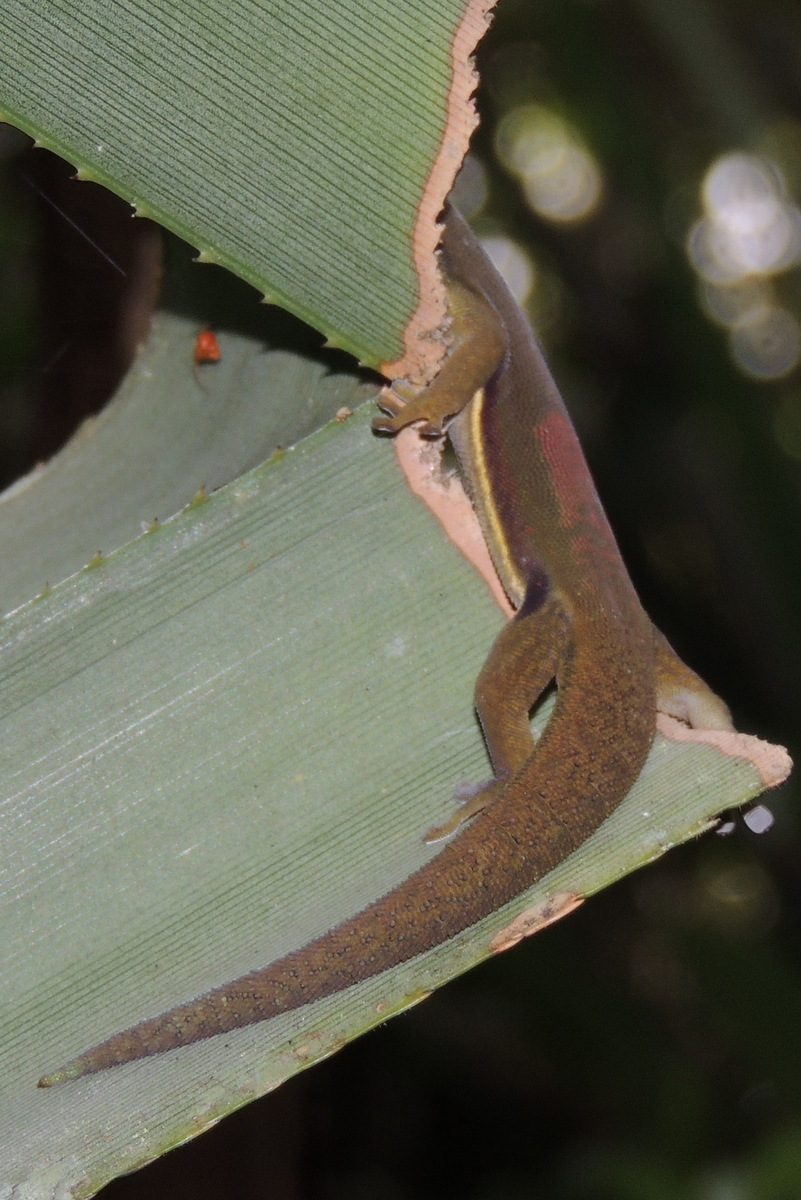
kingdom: Animalia
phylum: Chordata
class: Squamata
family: Gekkonidae
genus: Phelsuma
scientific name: Phelsuma lineata
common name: Lined day gecko
